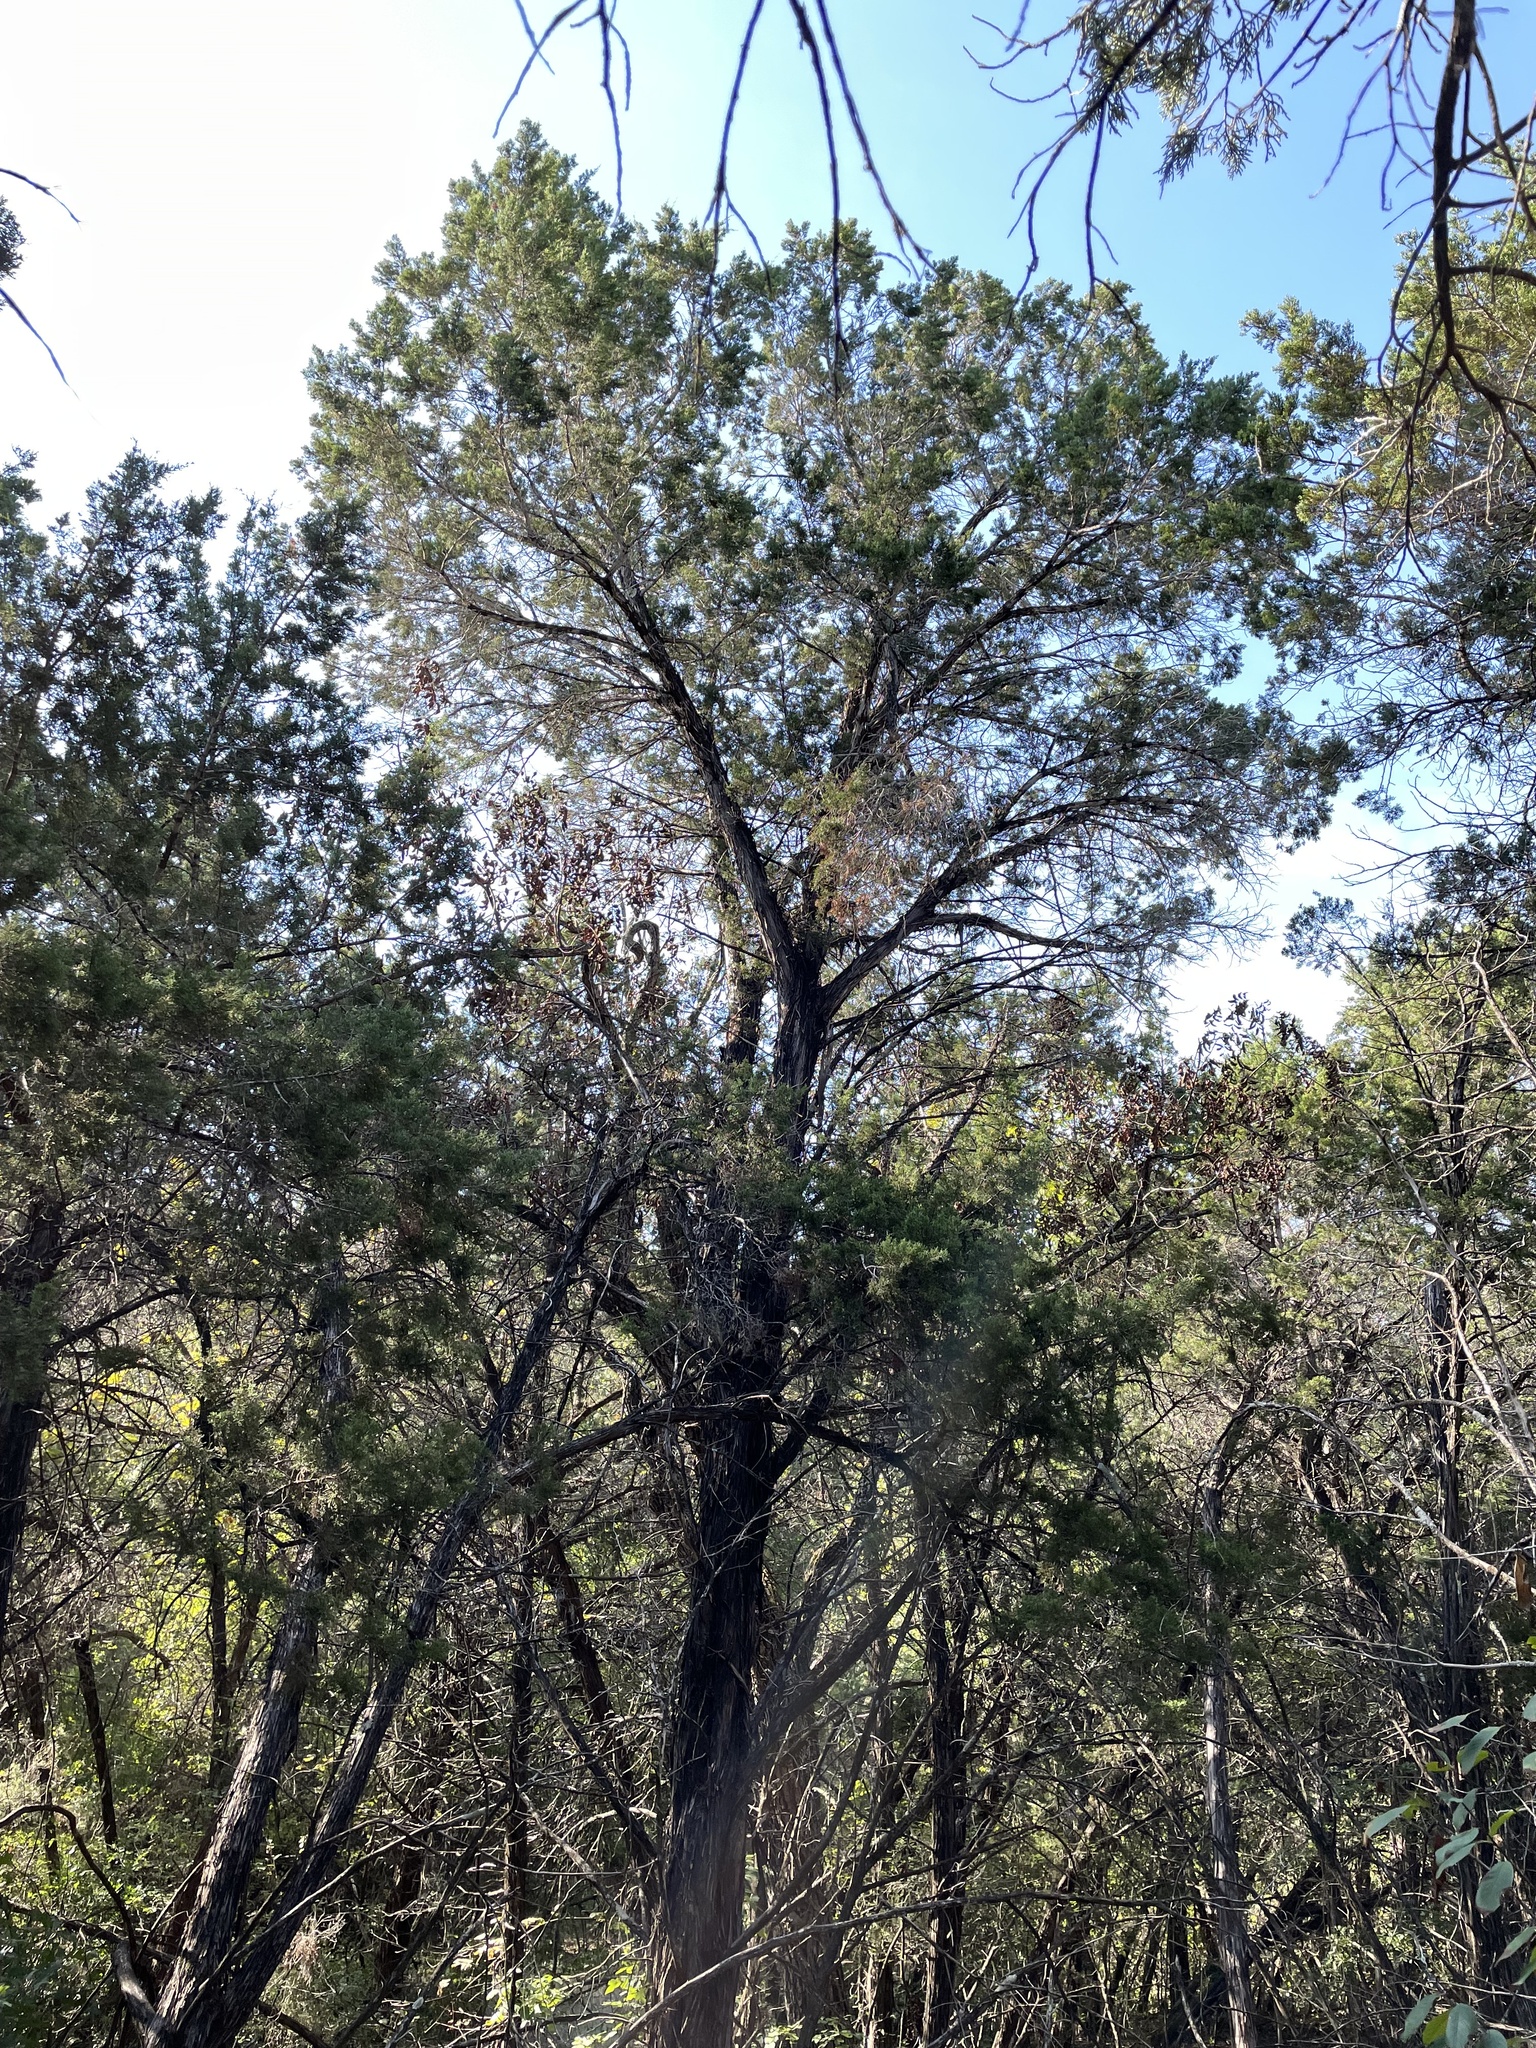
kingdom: Plantae
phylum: Tracheophyta
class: Pinopsida
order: Pinales
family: Cupressaceae
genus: Juniperus
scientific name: Juniperus ashei
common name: Mexican juniper
